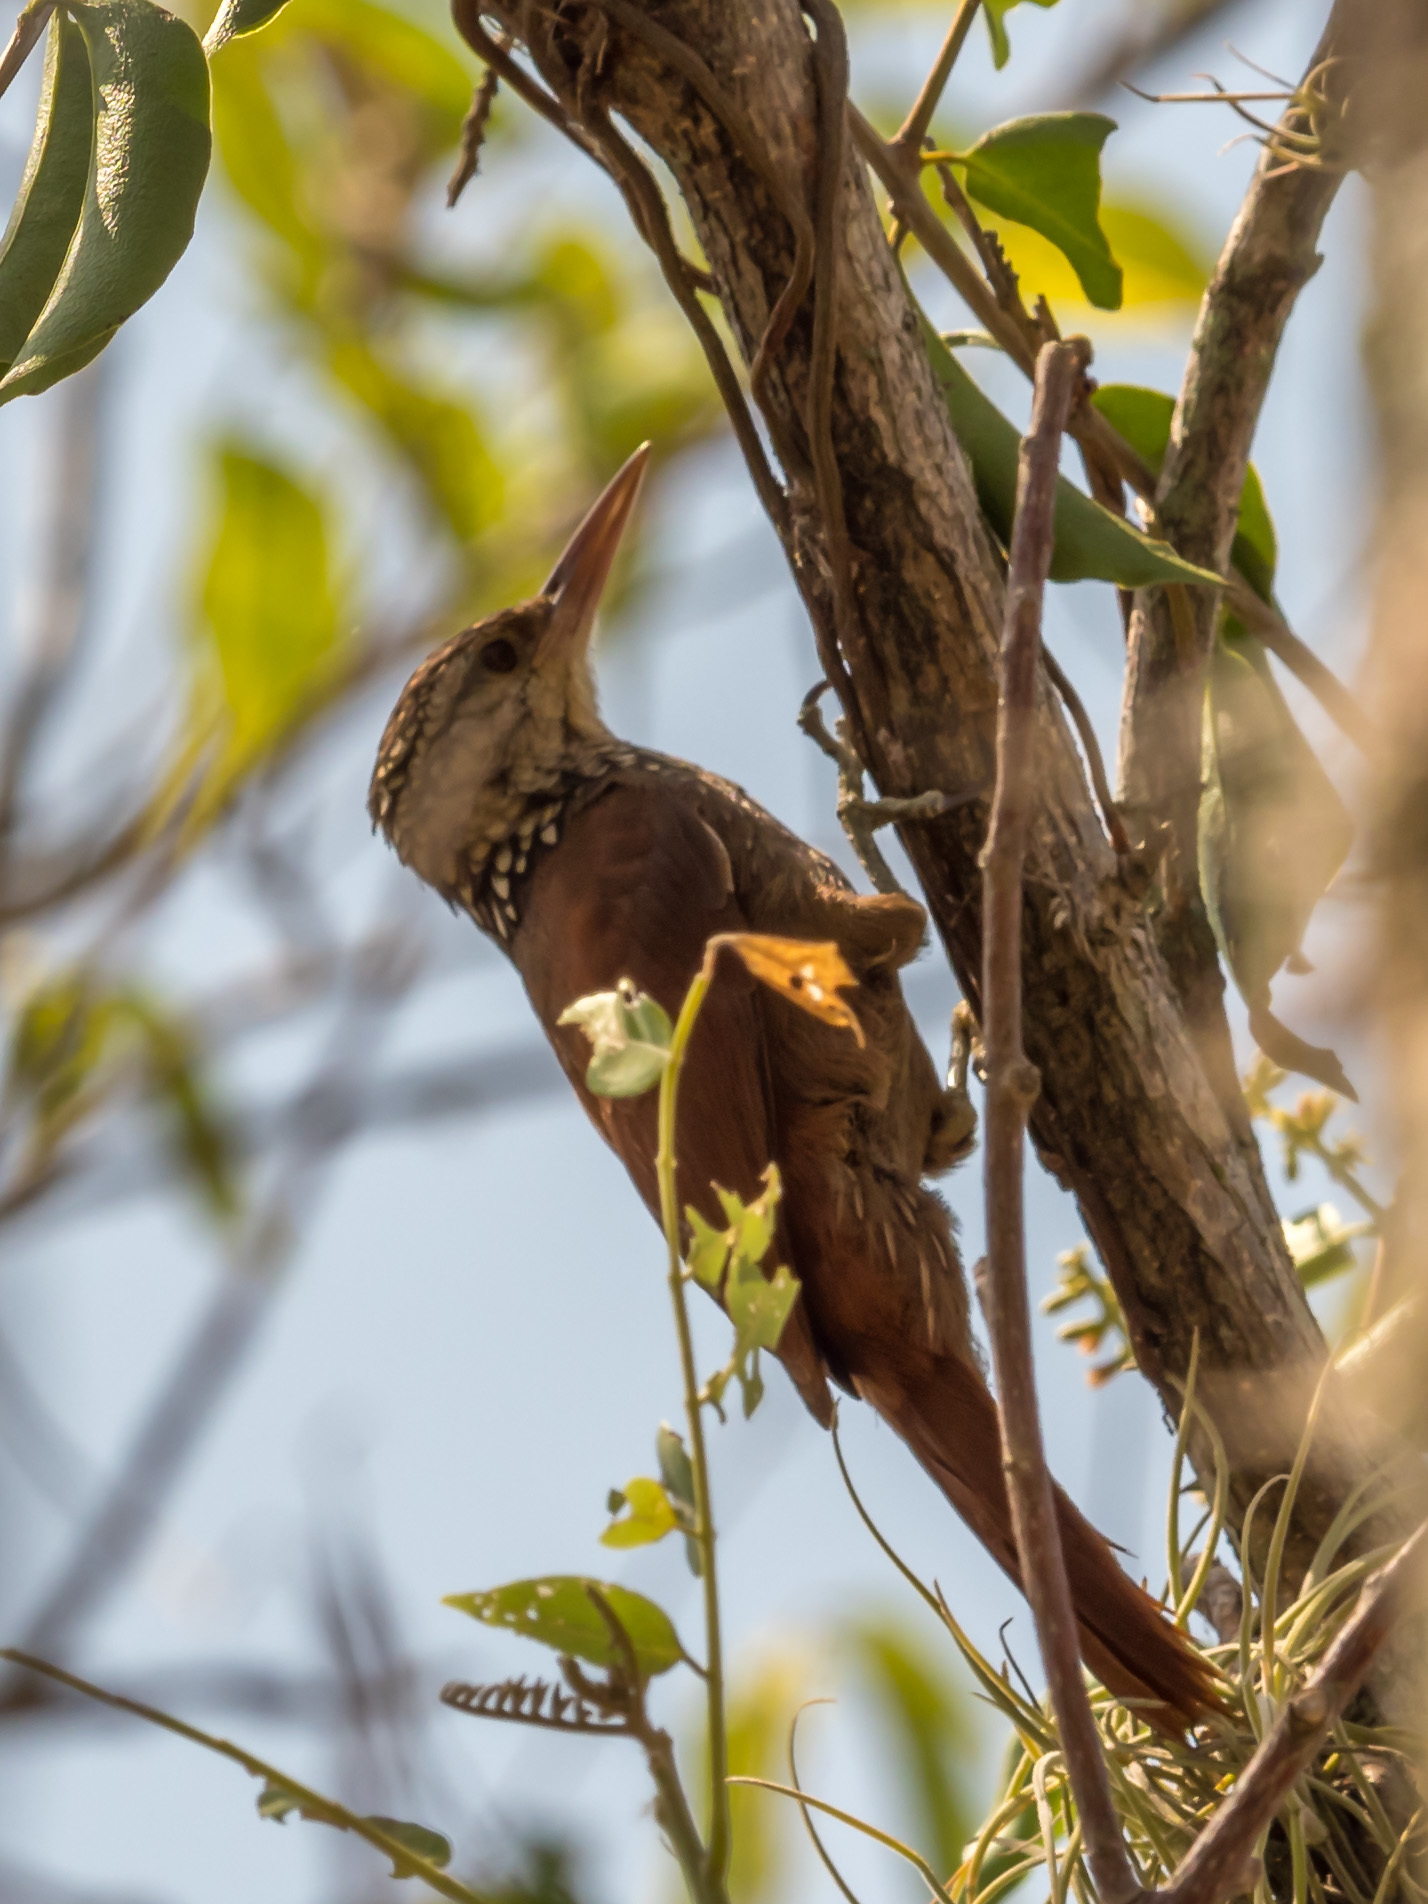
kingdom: Animalia
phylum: Chordata
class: Aves
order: Passeriformes
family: Furnariidae
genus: Xiphorhynchus
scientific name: Xiphorhynchus picus
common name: Straight-billed woodcreeper
